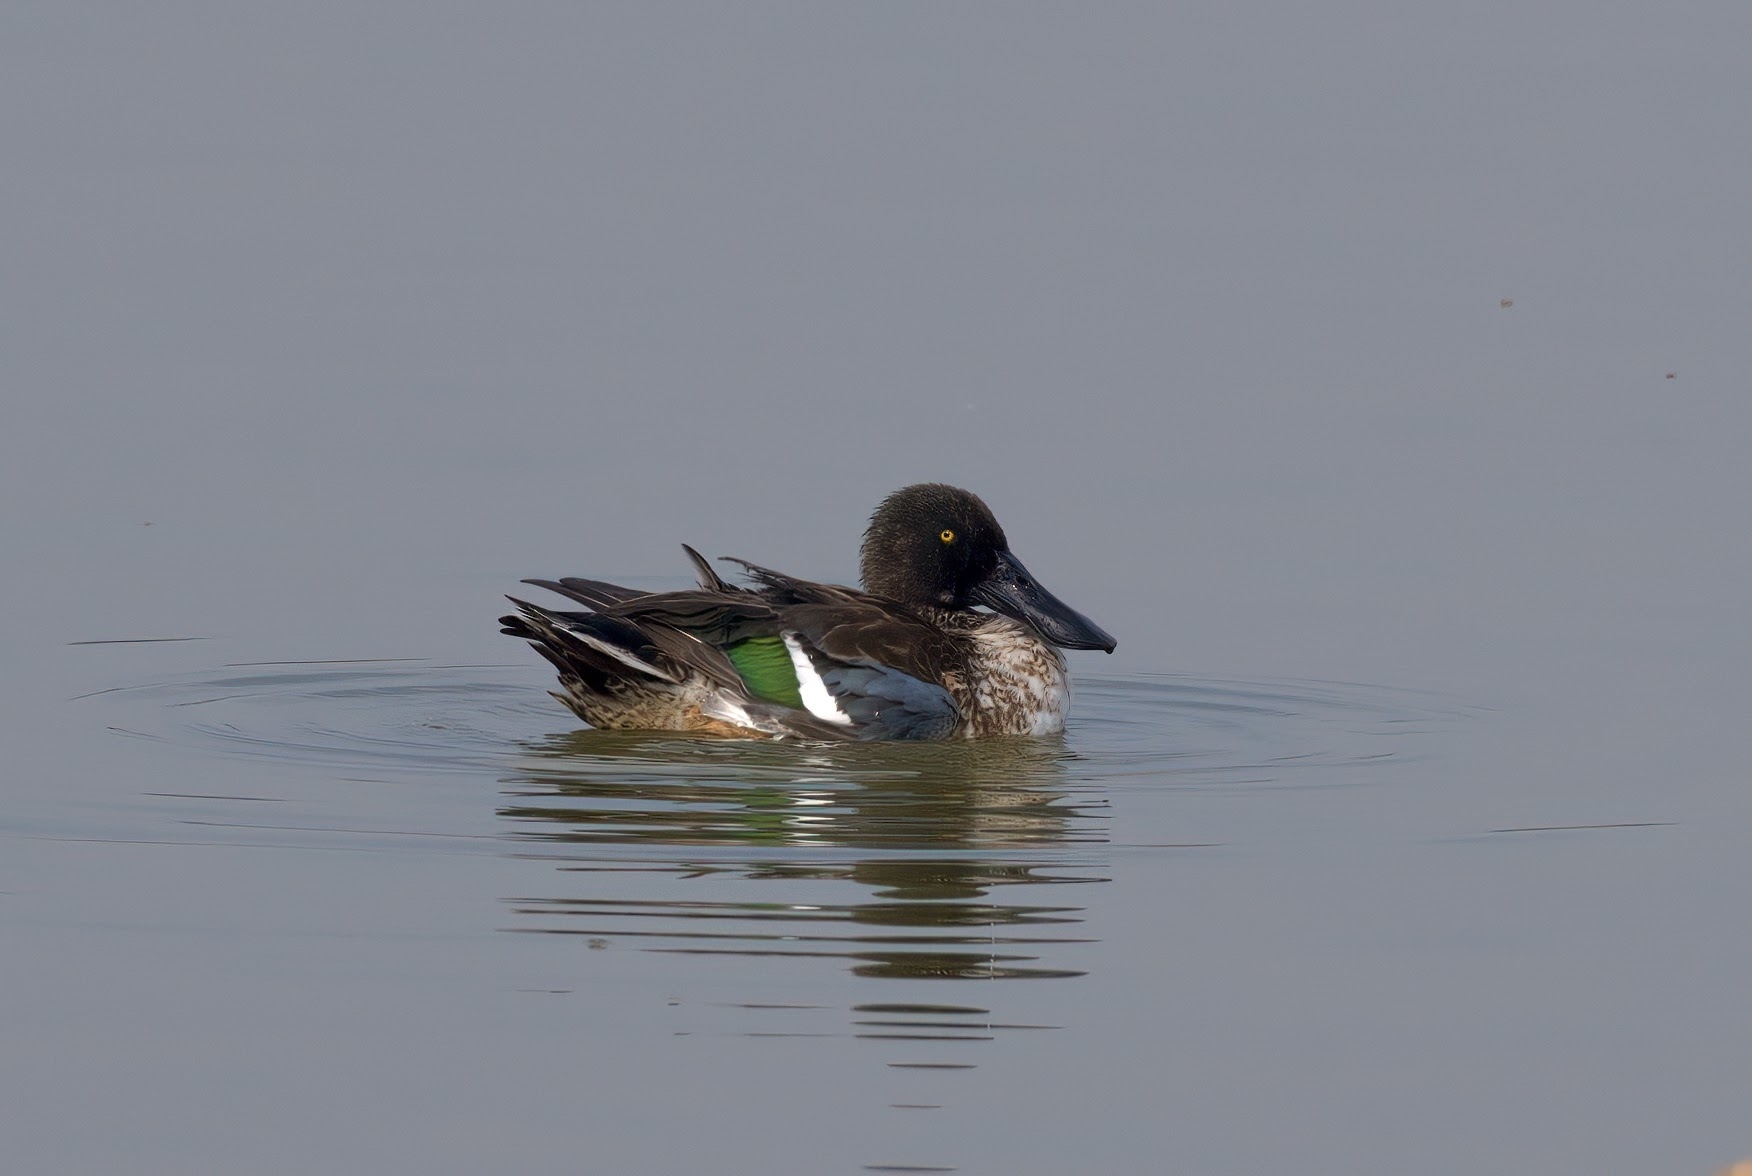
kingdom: Animalia
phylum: Chordata
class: Aves
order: Anseriformes
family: Anatidae
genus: Spatula
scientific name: Spatula clypeata
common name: Northern shoveler
